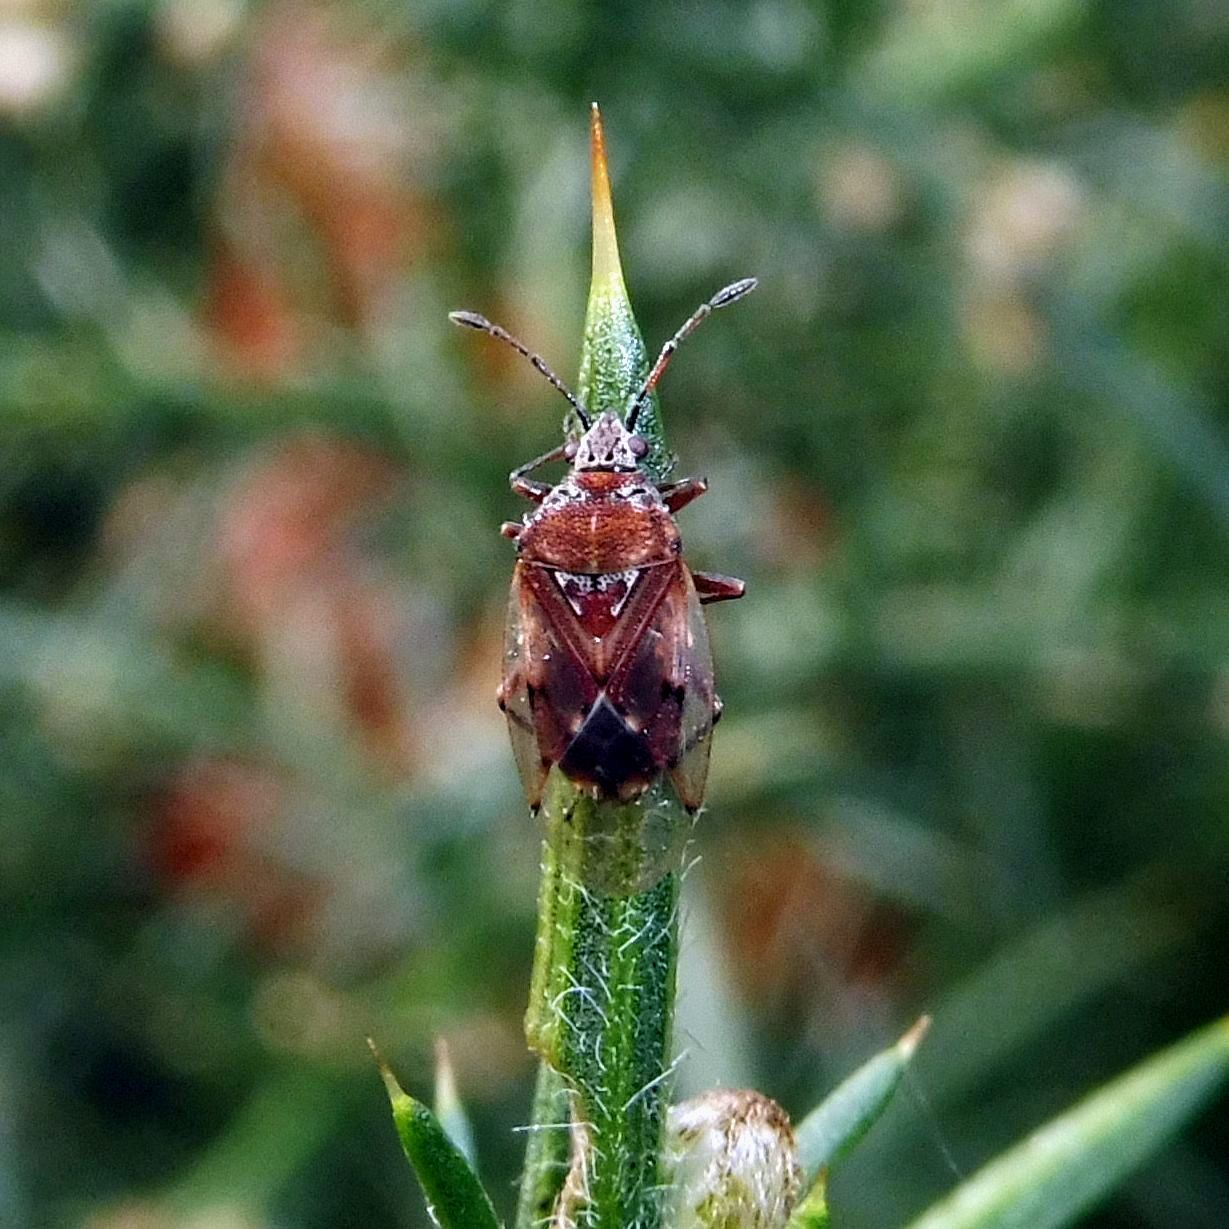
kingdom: Animalia
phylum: Arthropoda
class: Insecta
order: Hemiptera
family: Lygaeidae
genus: Kleidocerys
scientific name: Kleidocerys resedae
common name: Birch catkin bug
